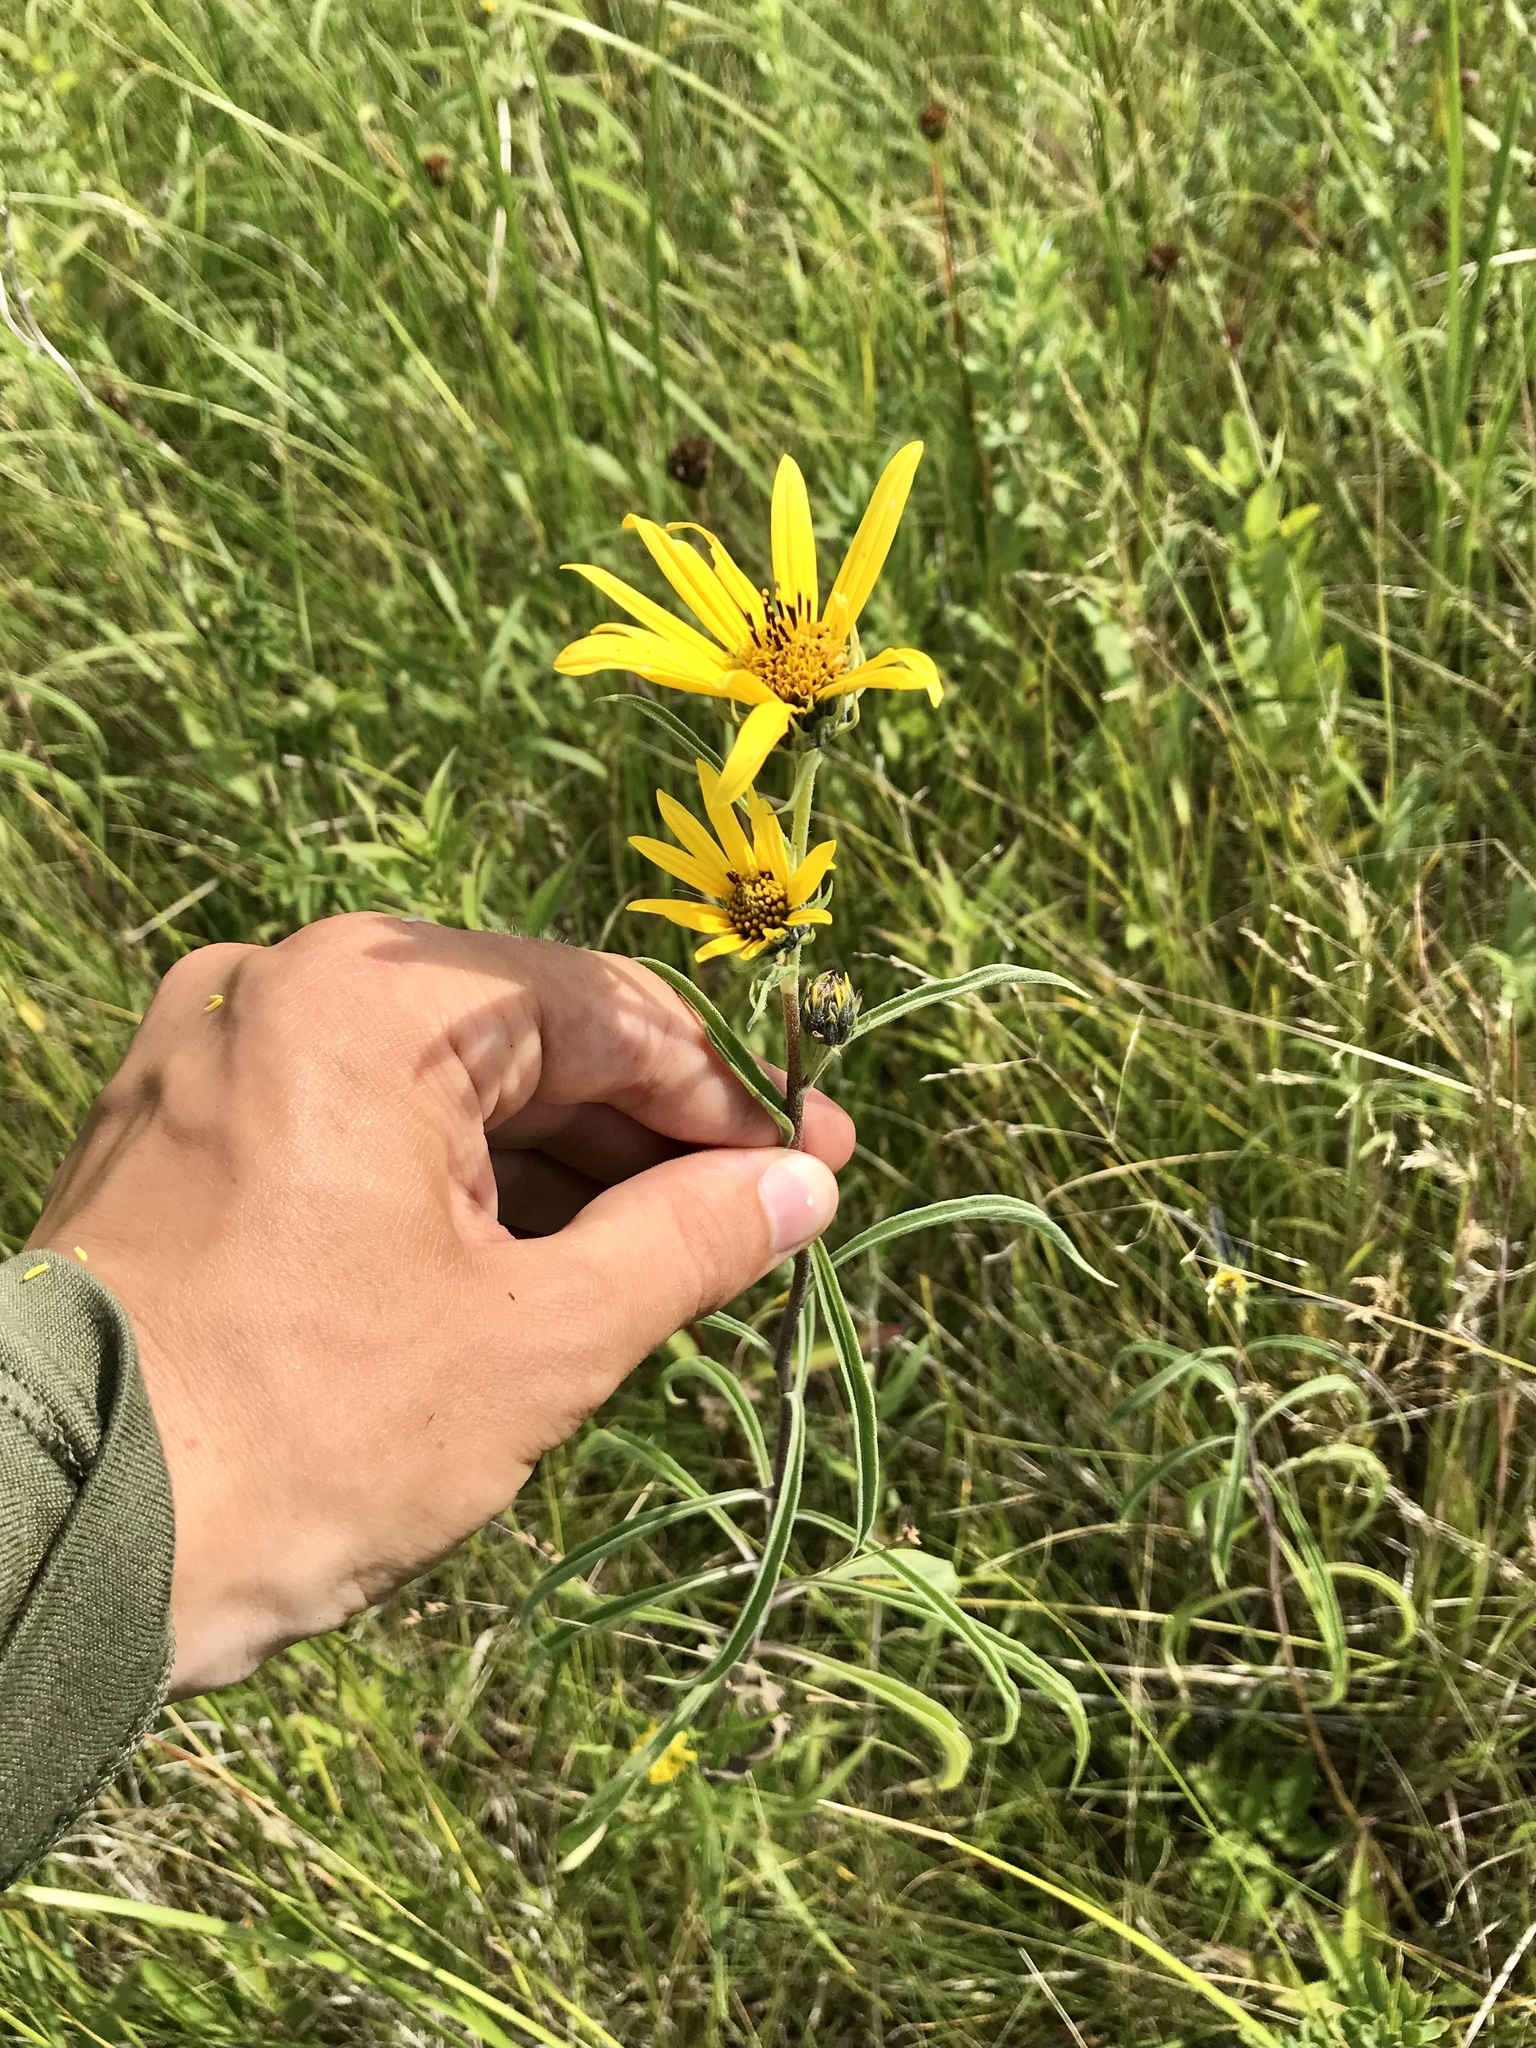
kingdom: Plantae
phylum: Tracheophyta
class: Magnoliopsida
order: Asterales
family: Asteraceae
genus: Helianthus
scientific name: Helianthus maximiliani
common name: Maximilian's sunflower
